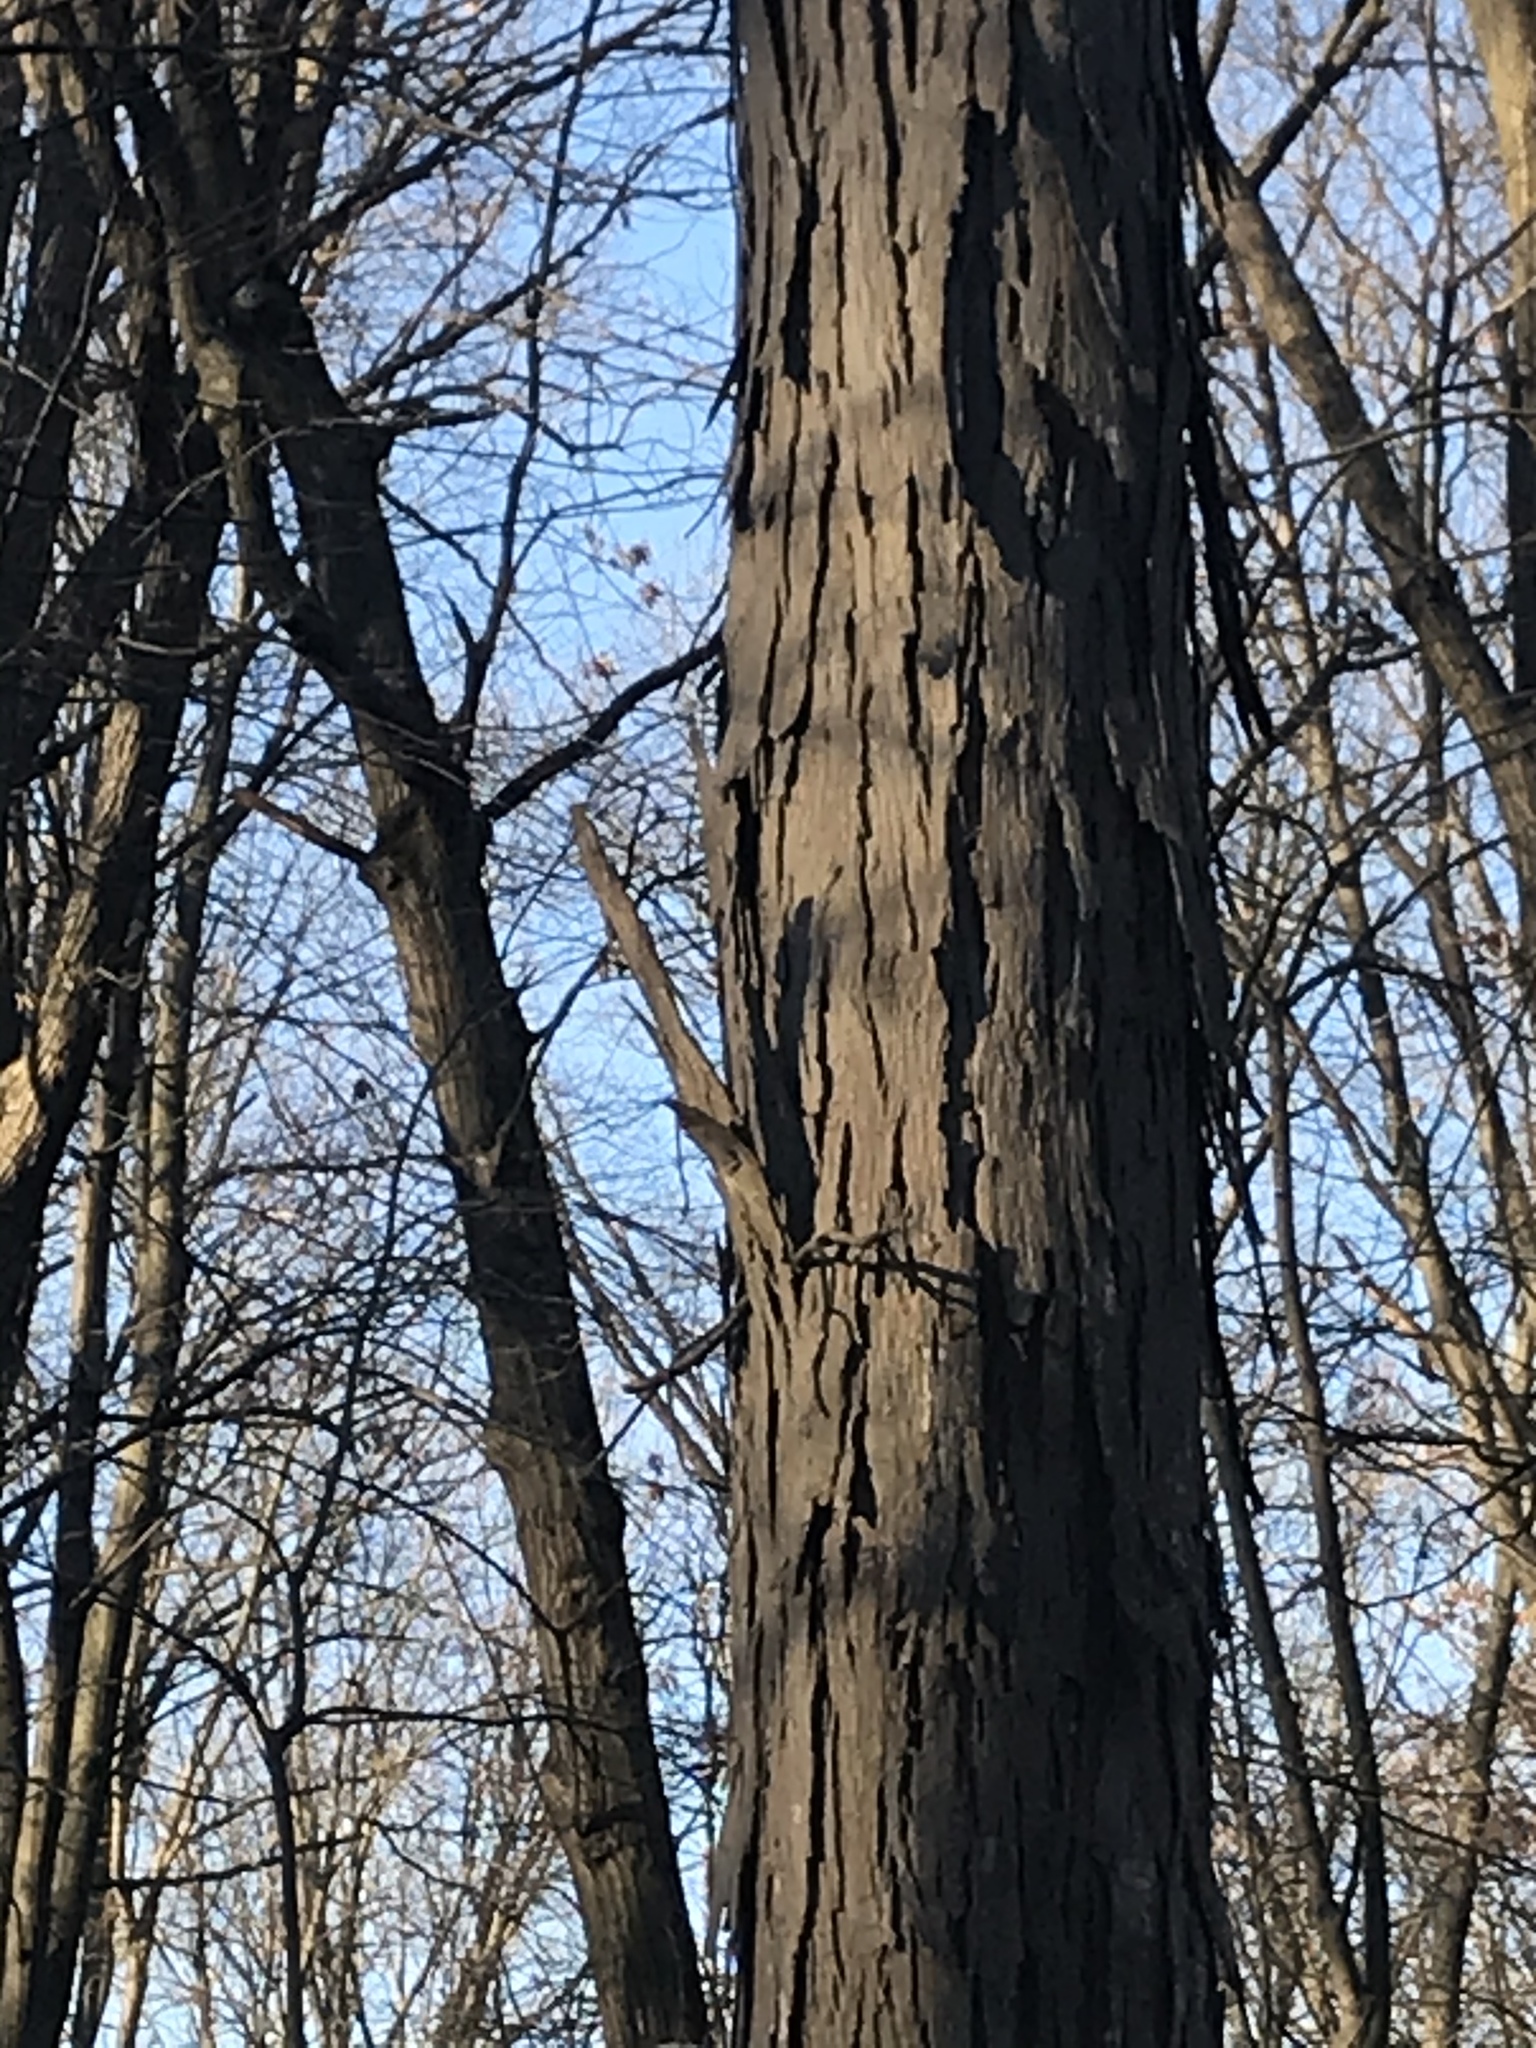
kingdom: Plantae
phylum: Tracheophyta
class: Magnoliopsida
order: Fagales
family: Juglandaceae
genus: Carya
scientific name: Carya ovata
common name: Shagbark hickory
